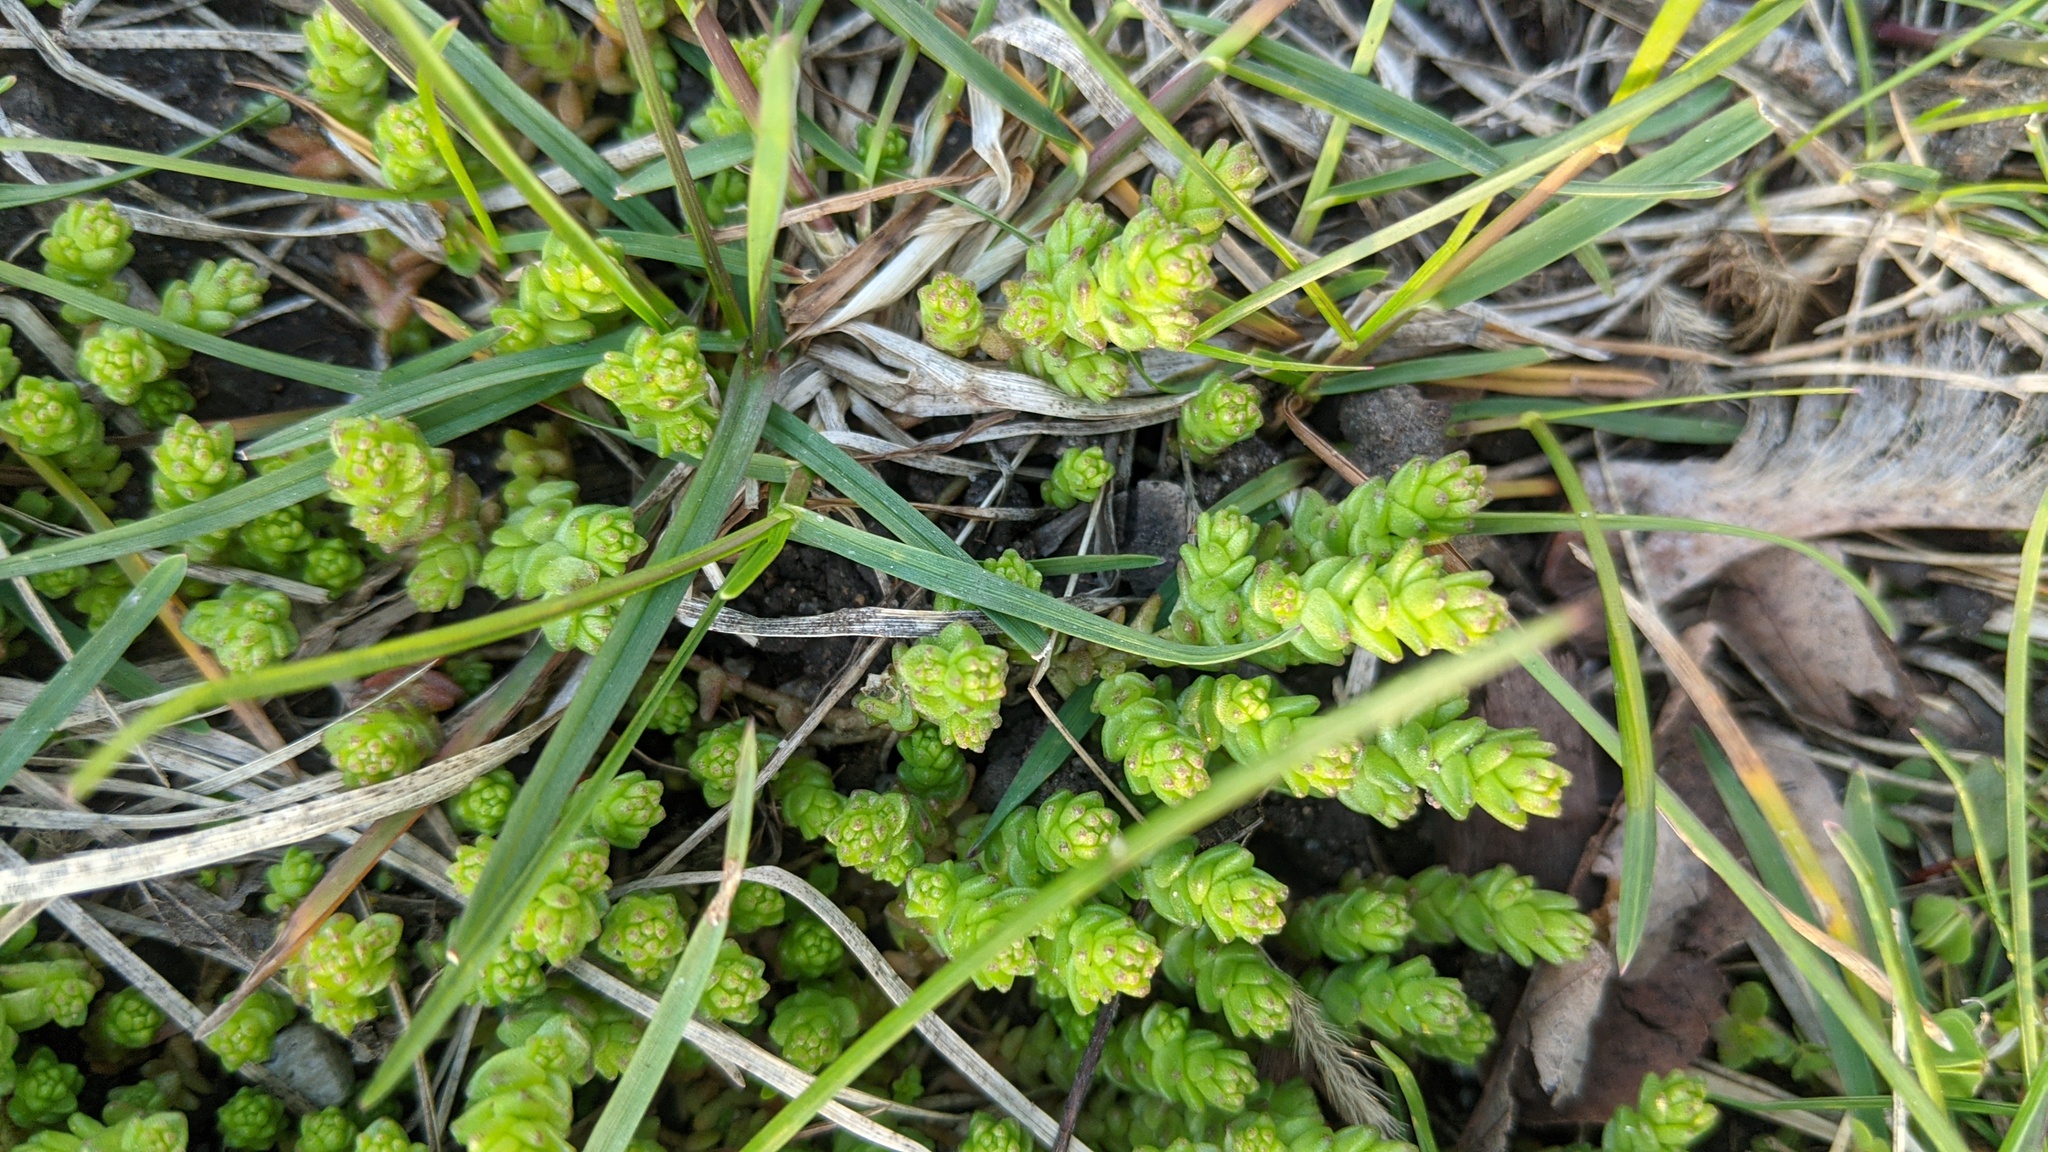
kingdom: Plantae
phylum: Tracheophyta
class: Magnoliopsida
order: Saxifragales
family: Crassulaceae
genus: Sedum
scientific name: Sedum acre
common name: Biting stonecrop
